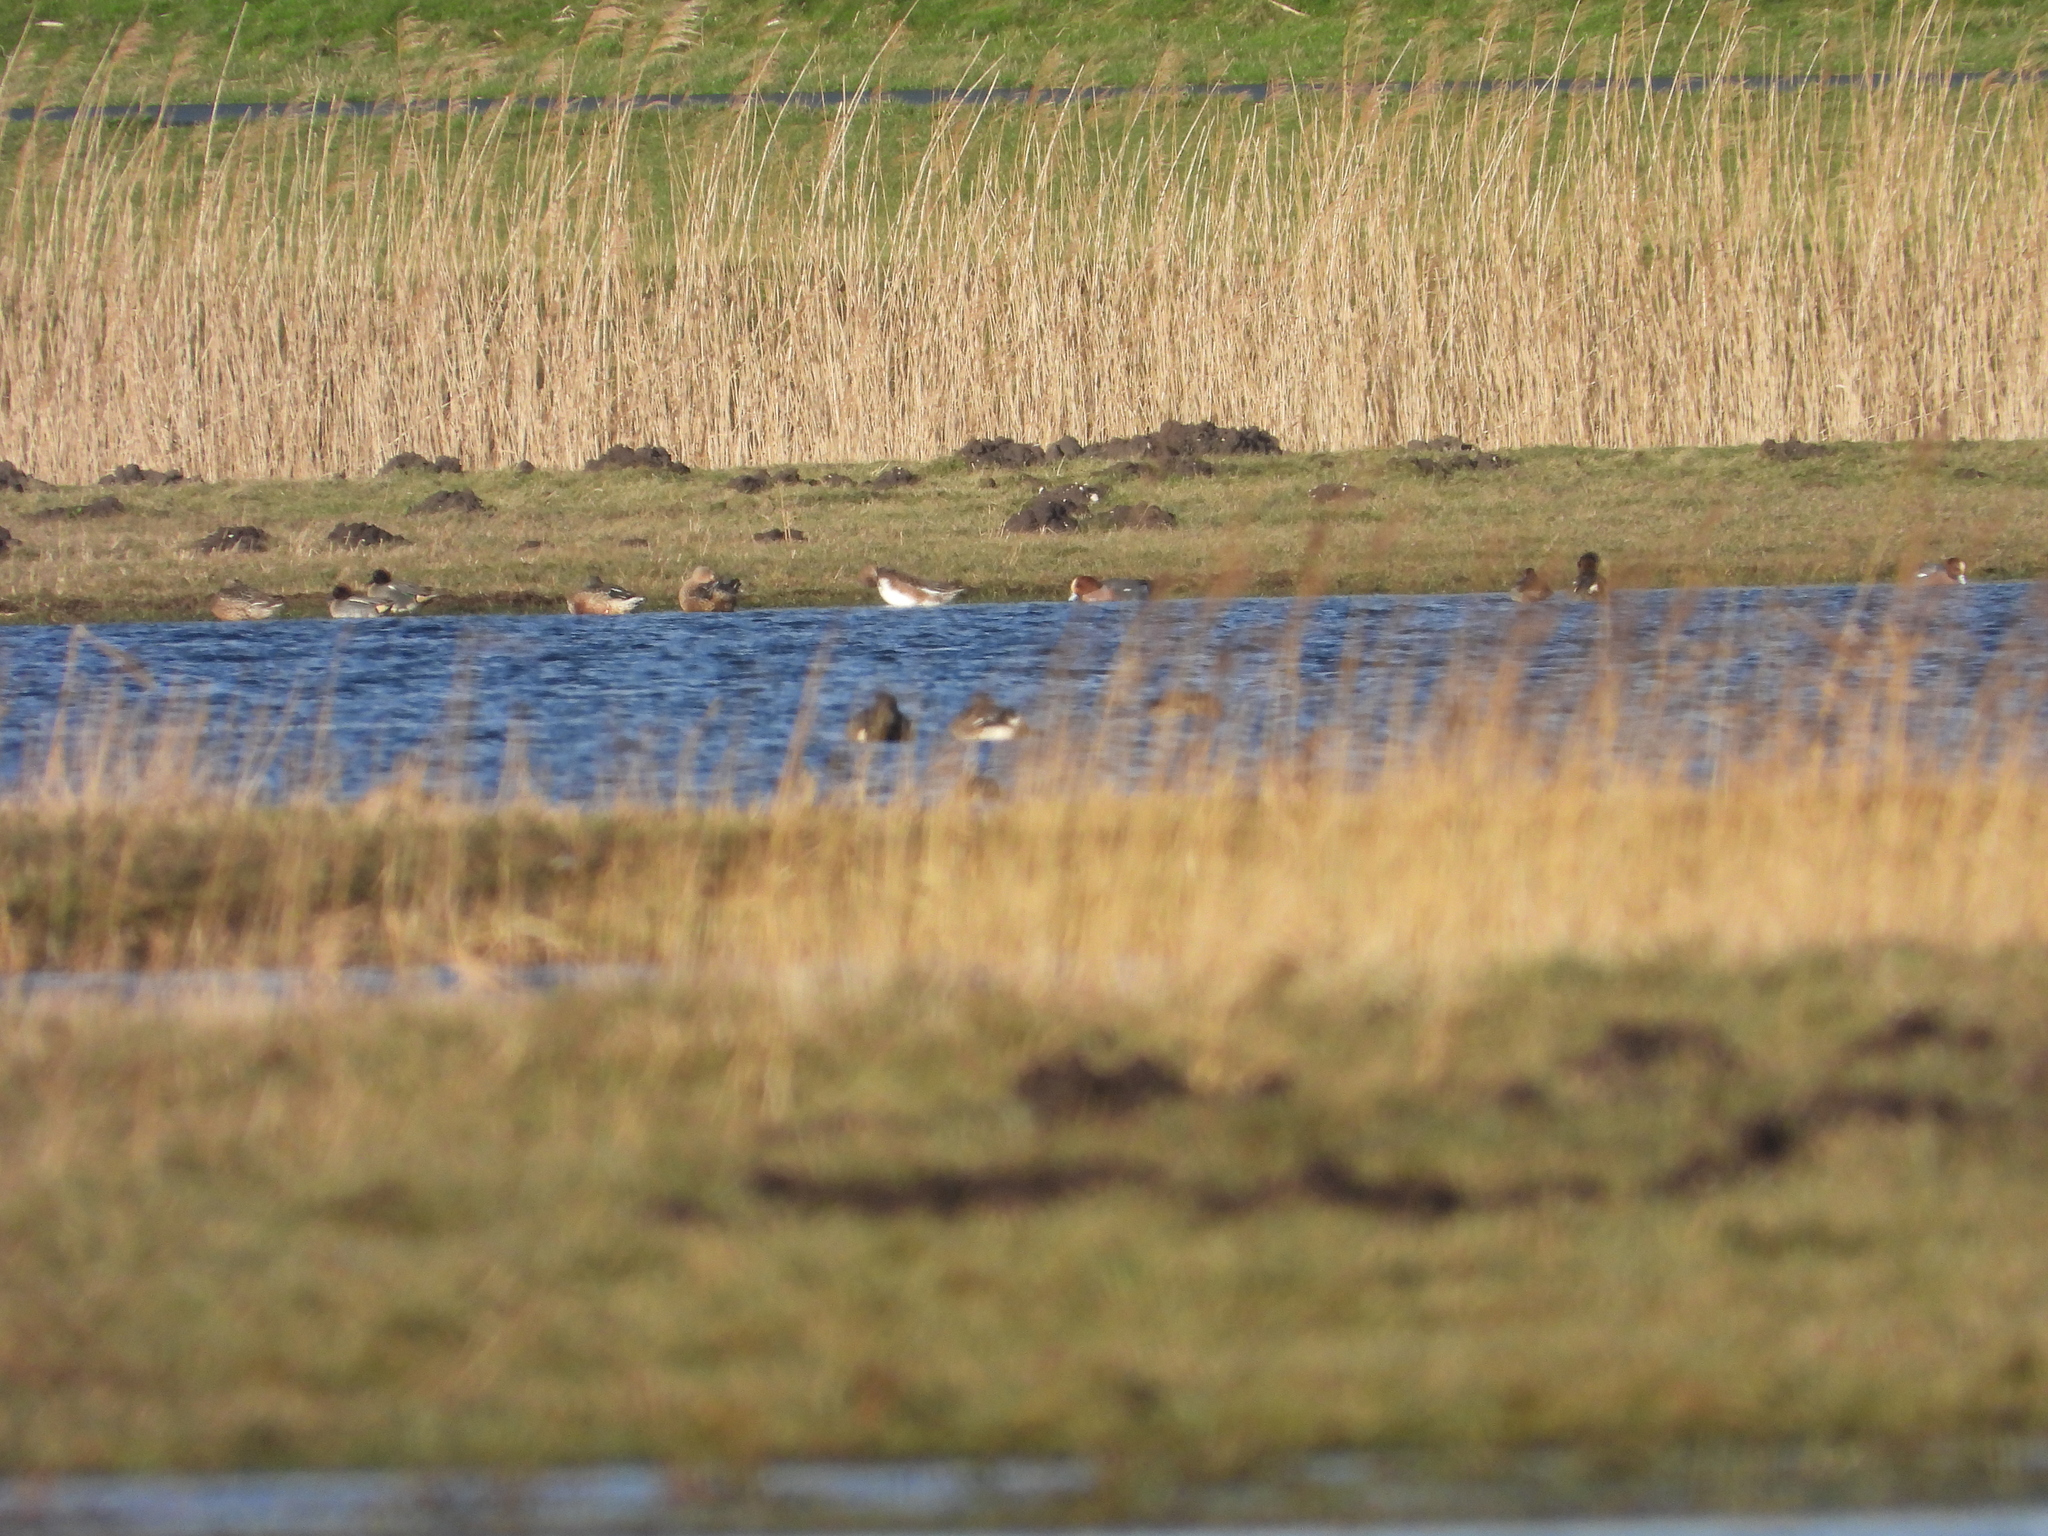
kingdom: Animalia
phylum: Chordata
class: Aves
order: Anseriformes
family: Anatidae
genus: Mareca
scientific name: Mareca penelope
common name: Eurasian wigeon
